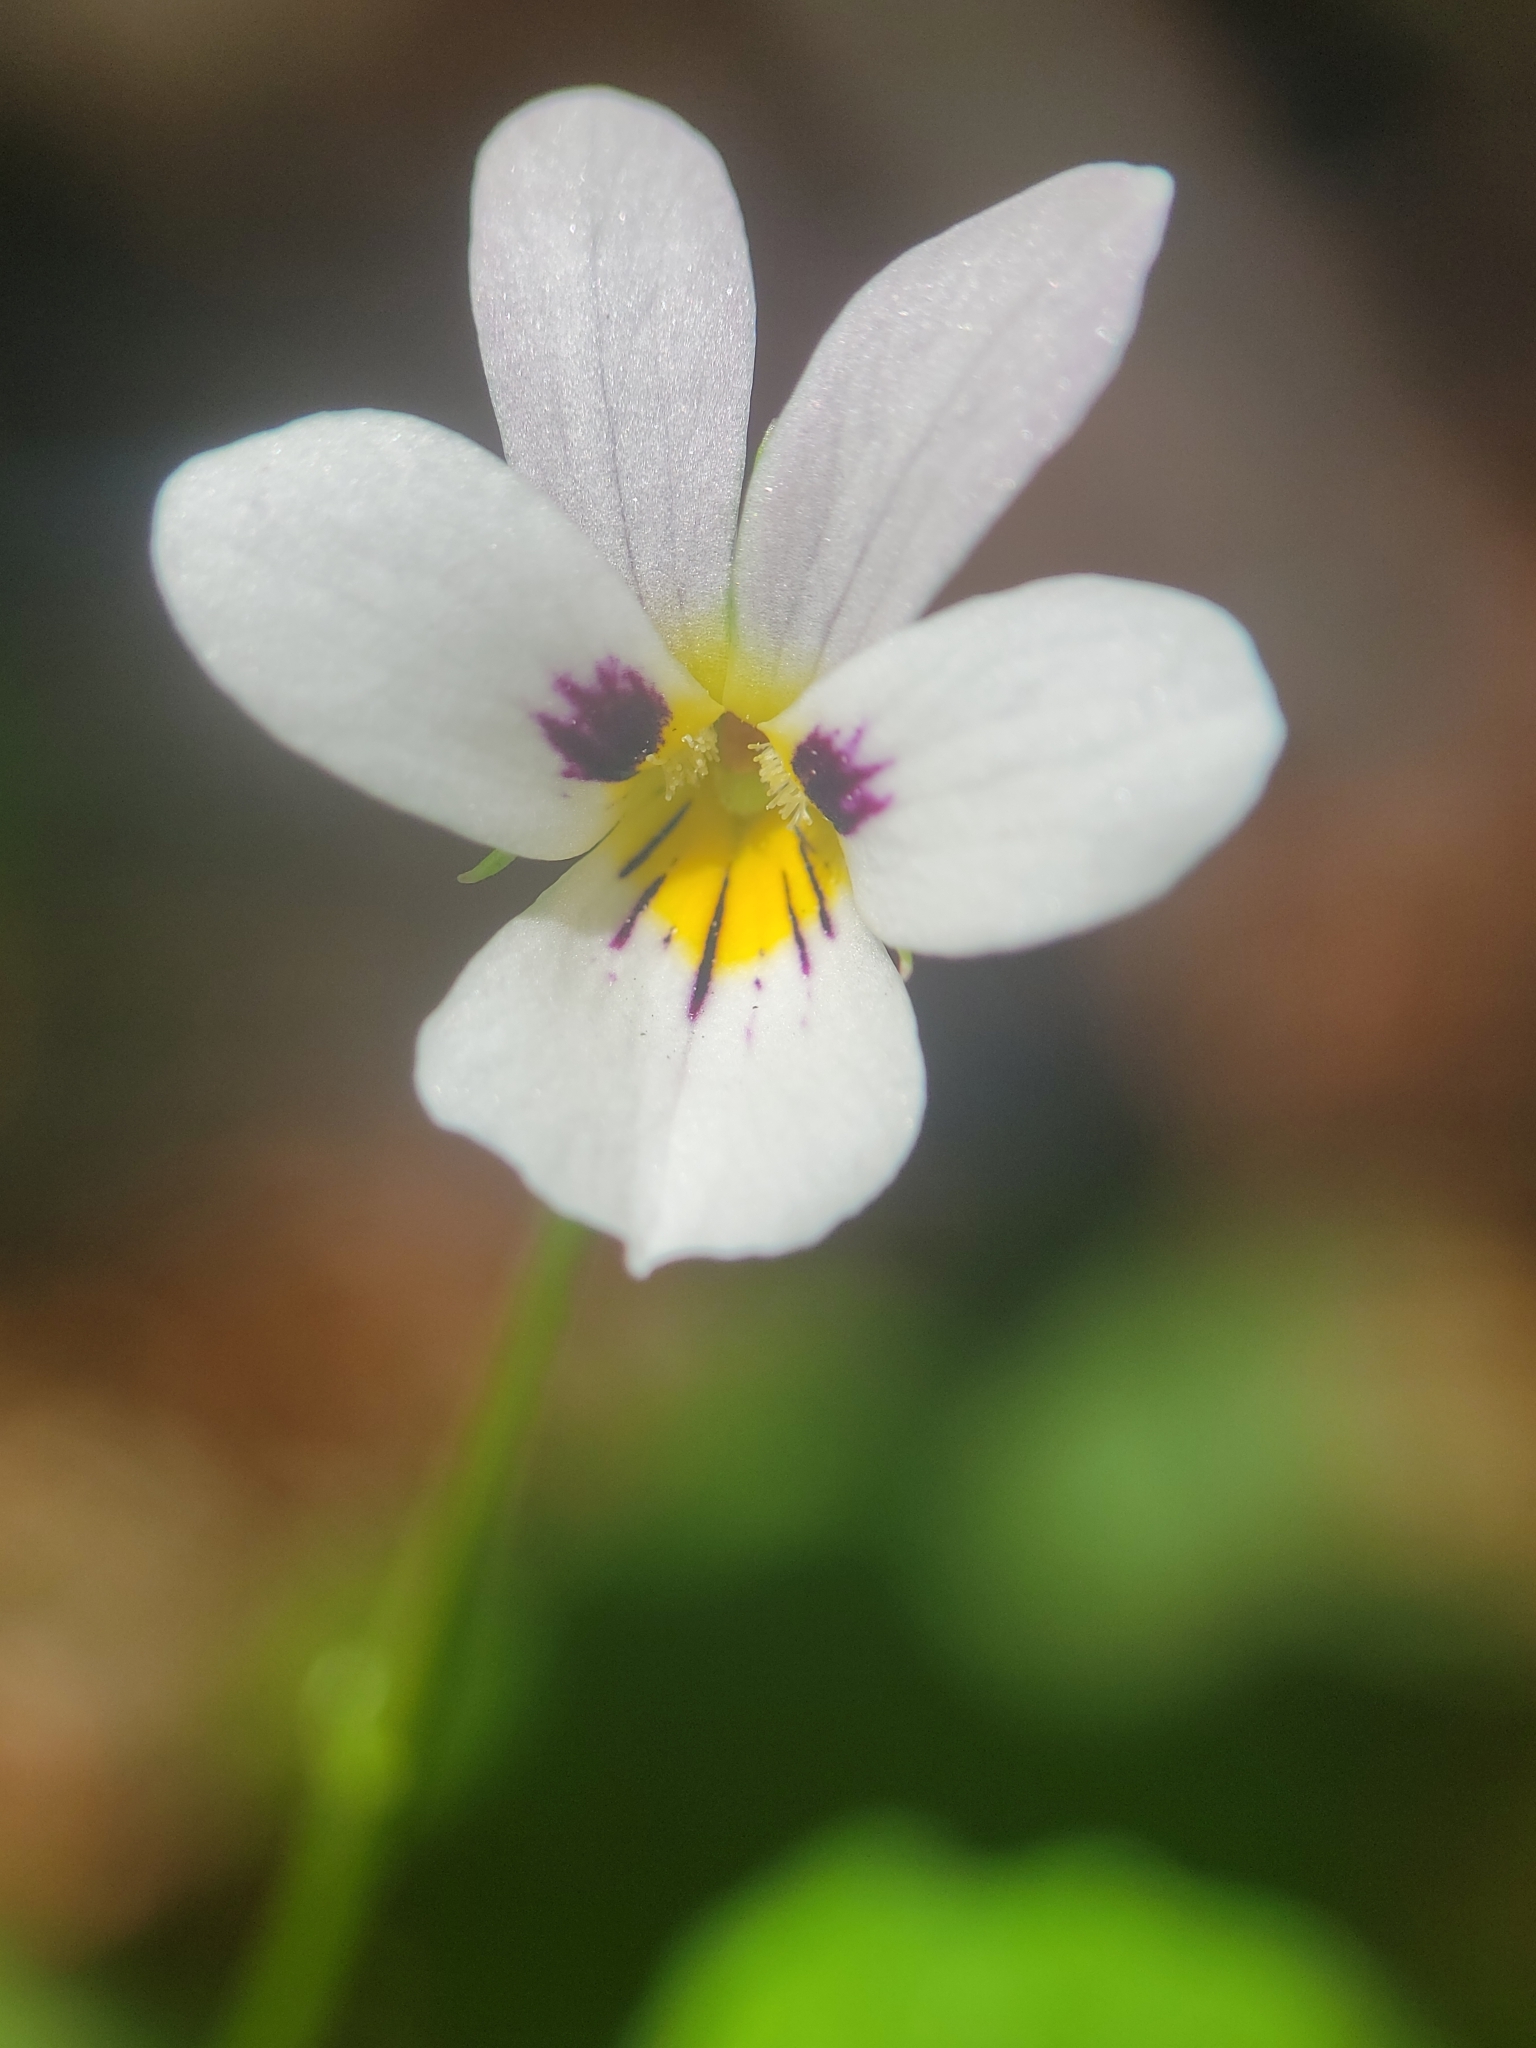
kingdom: Plantae
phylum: Tracheophyta
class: Magnoliopsida
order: Malpighiales
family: Violaceae
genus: Viola
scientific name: Viola ocellata
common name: Western heart's ease
